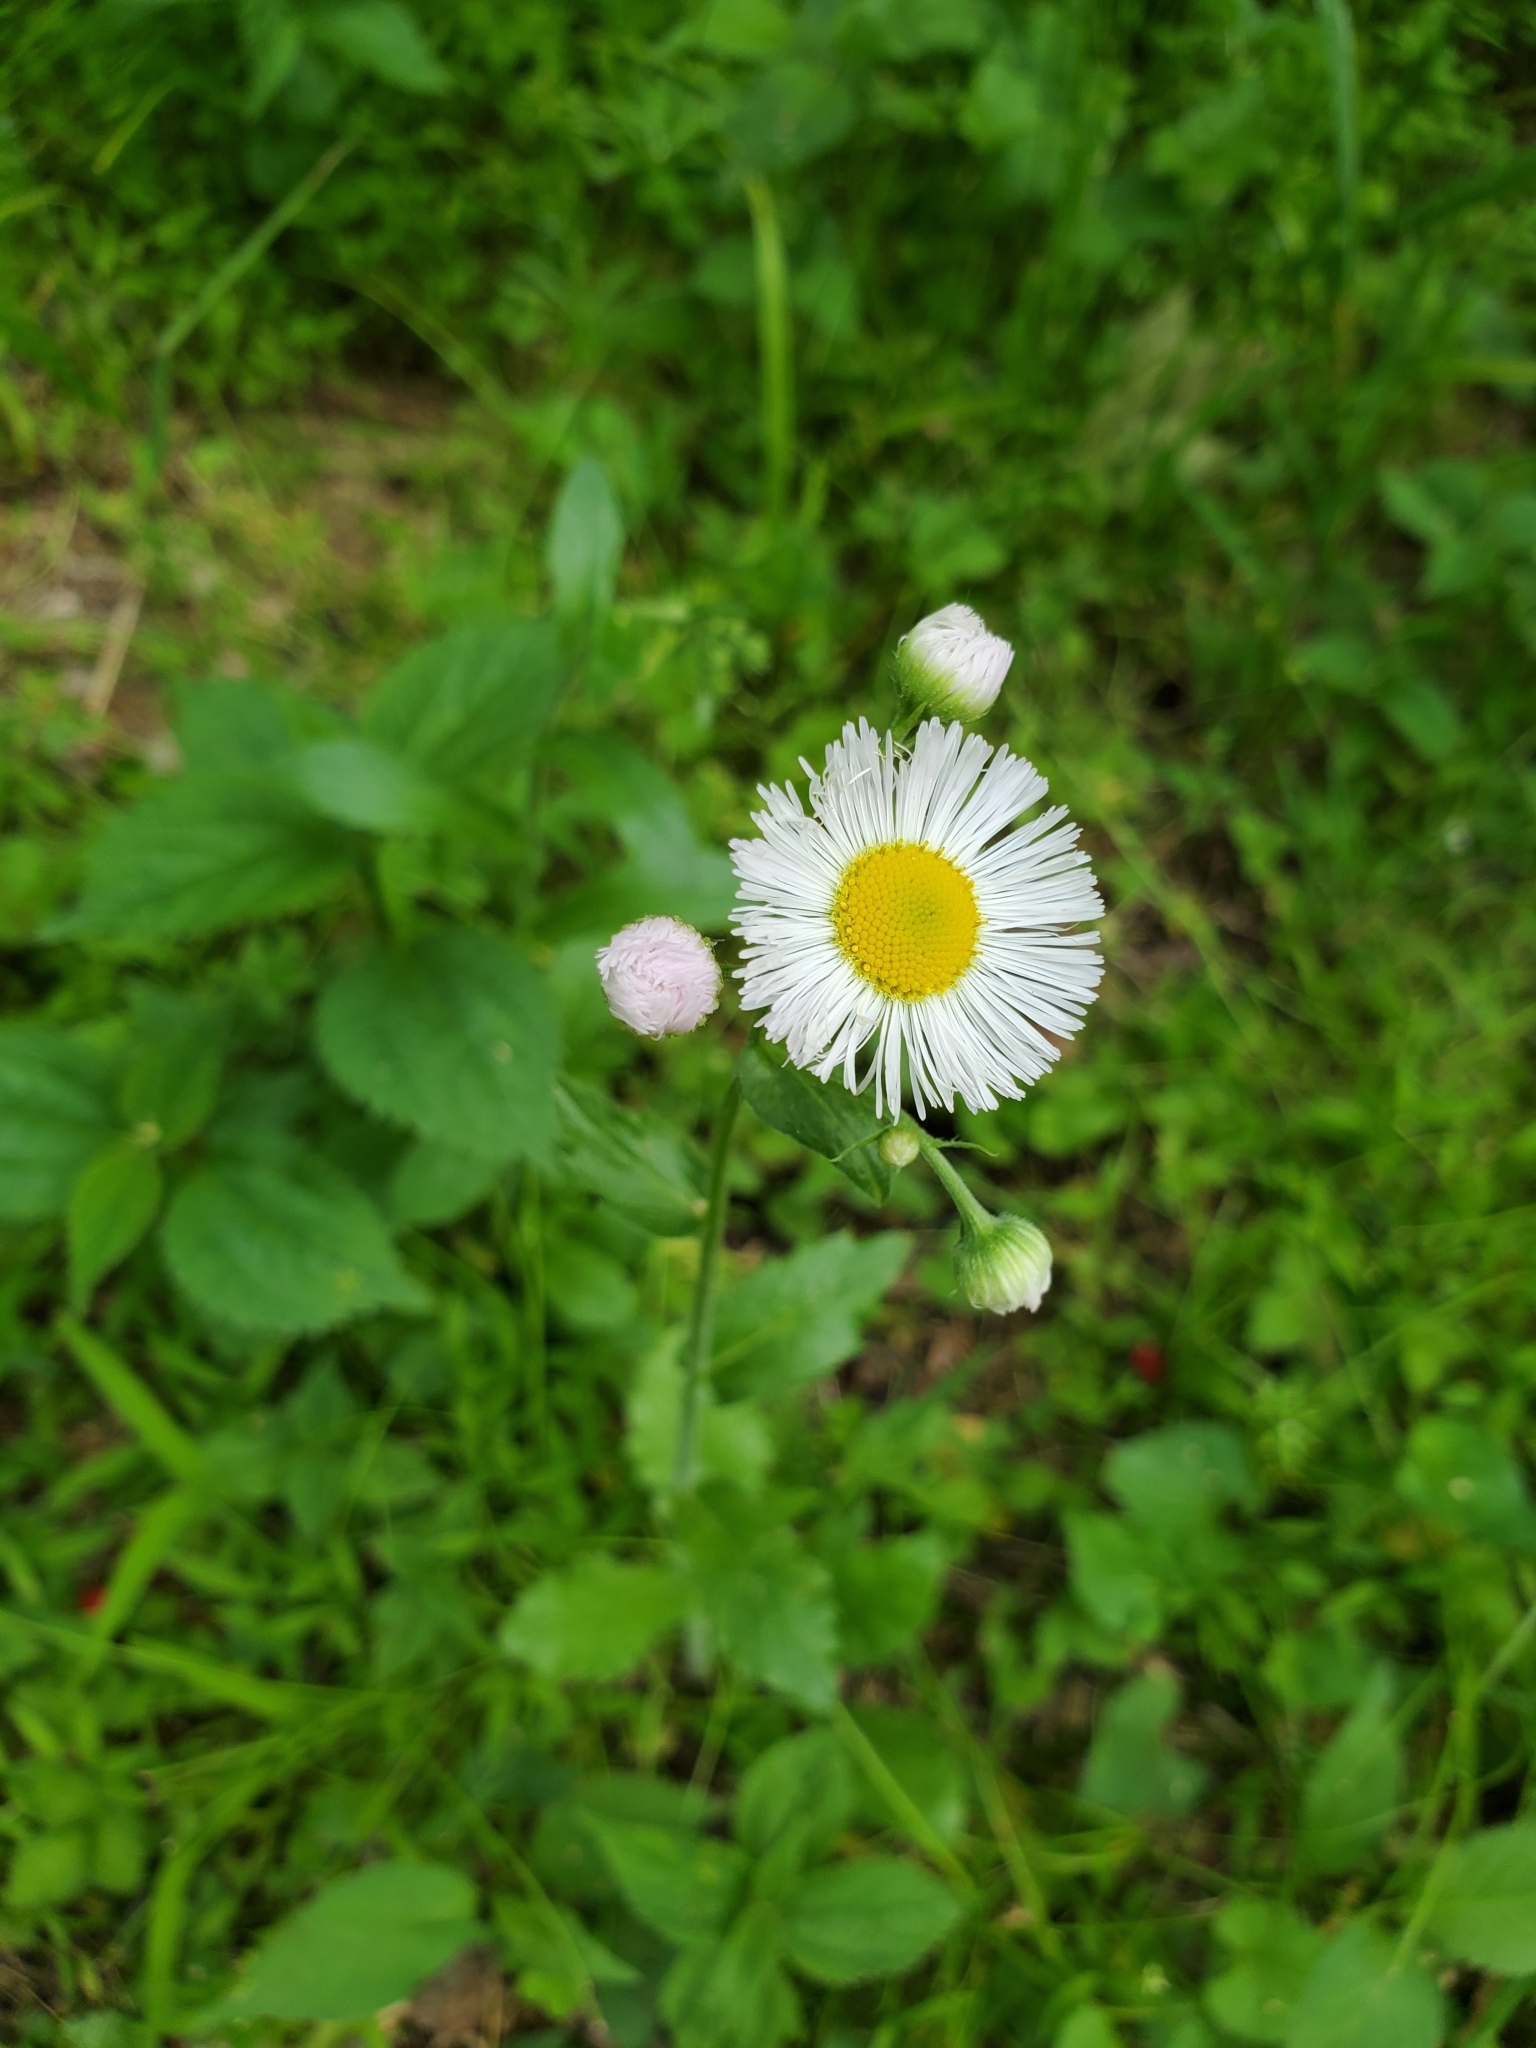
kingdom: Plantae
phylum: Tracheophyta
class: Magnoliopsida
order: Asterales
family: Asteraceae
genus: Erigeron
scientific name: Erigeron philadelphicus
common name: Robin's-plantain
